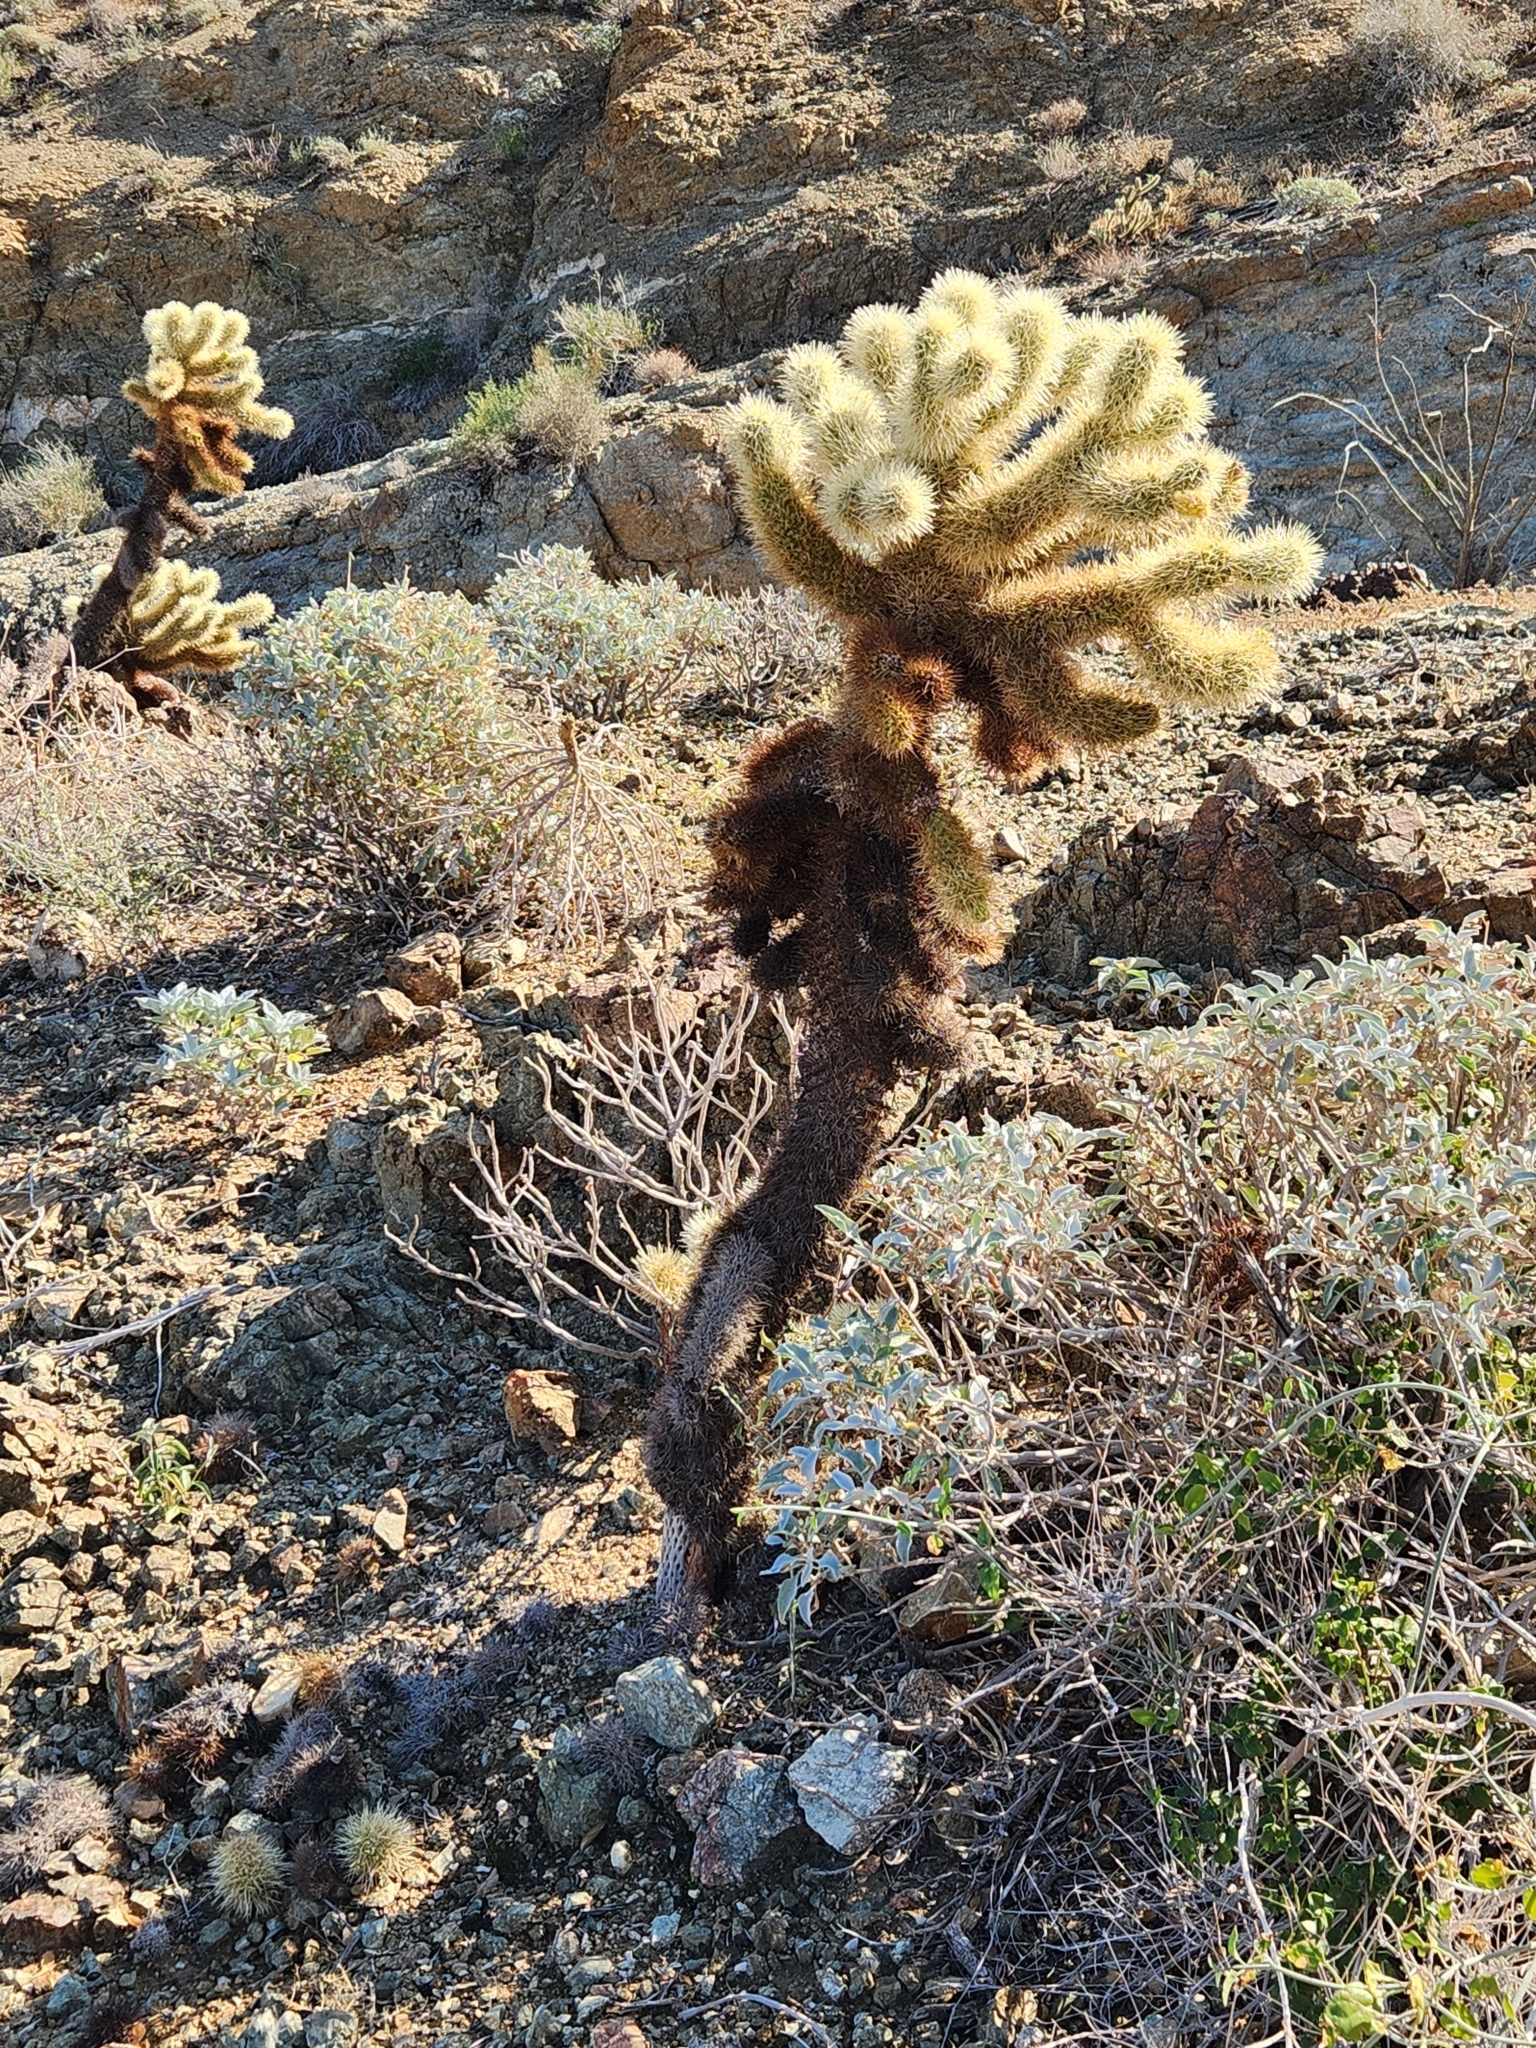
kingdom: Plantae
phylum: Tracheophyta
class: Magnoliopsida
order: Caryophyllales
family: Cactaceae
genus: Cylindropuntia
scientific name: Cylindropuntia fosbergii
